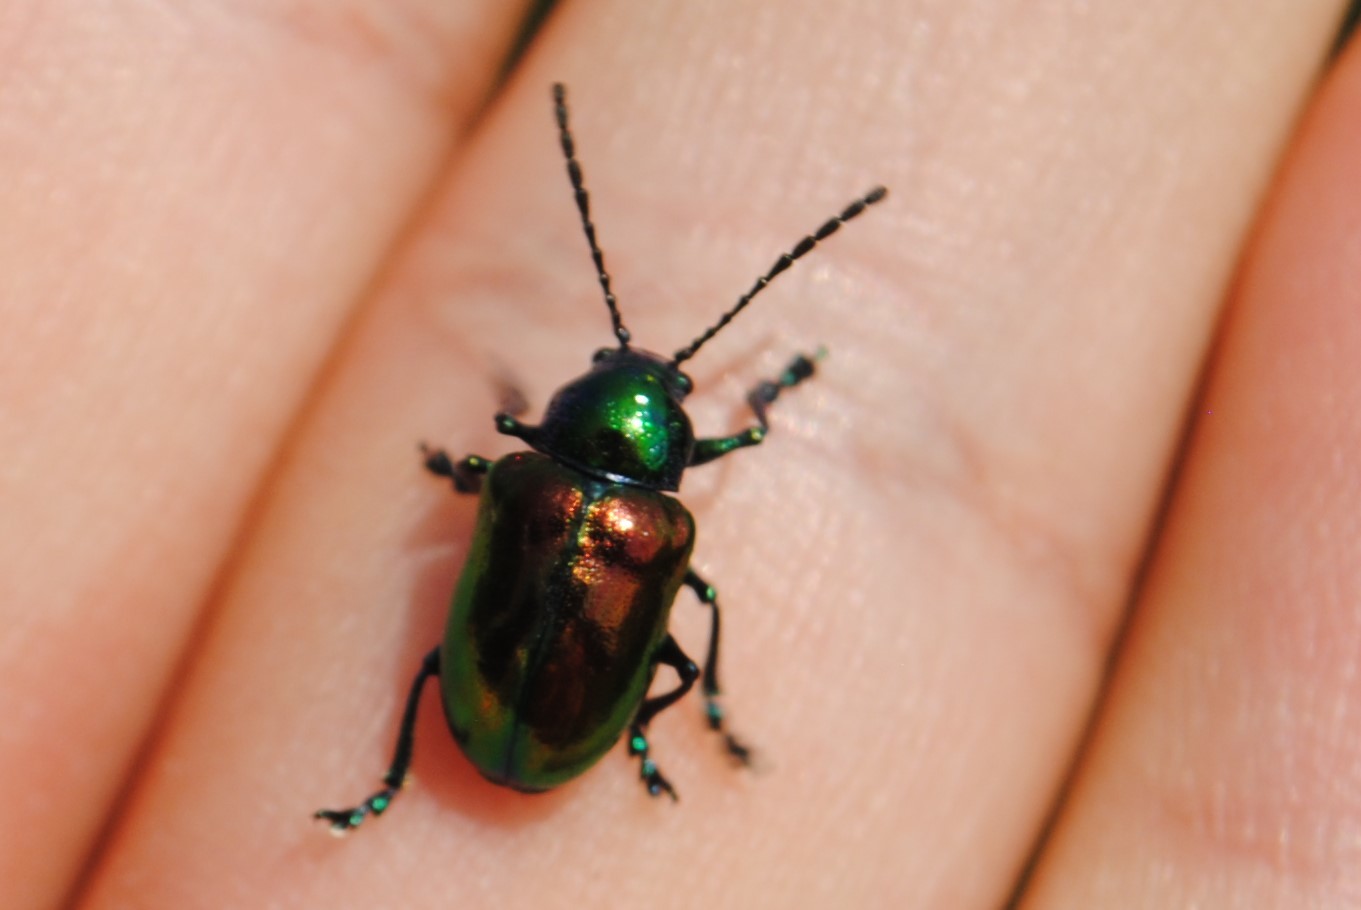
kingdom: Animalia
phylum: Arthropoda
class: Insecta
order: Coleoptera
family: Chrysomelidae
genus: Chrysochus
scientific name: Chrysochus auratus
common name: Dogbane leaf beetle
